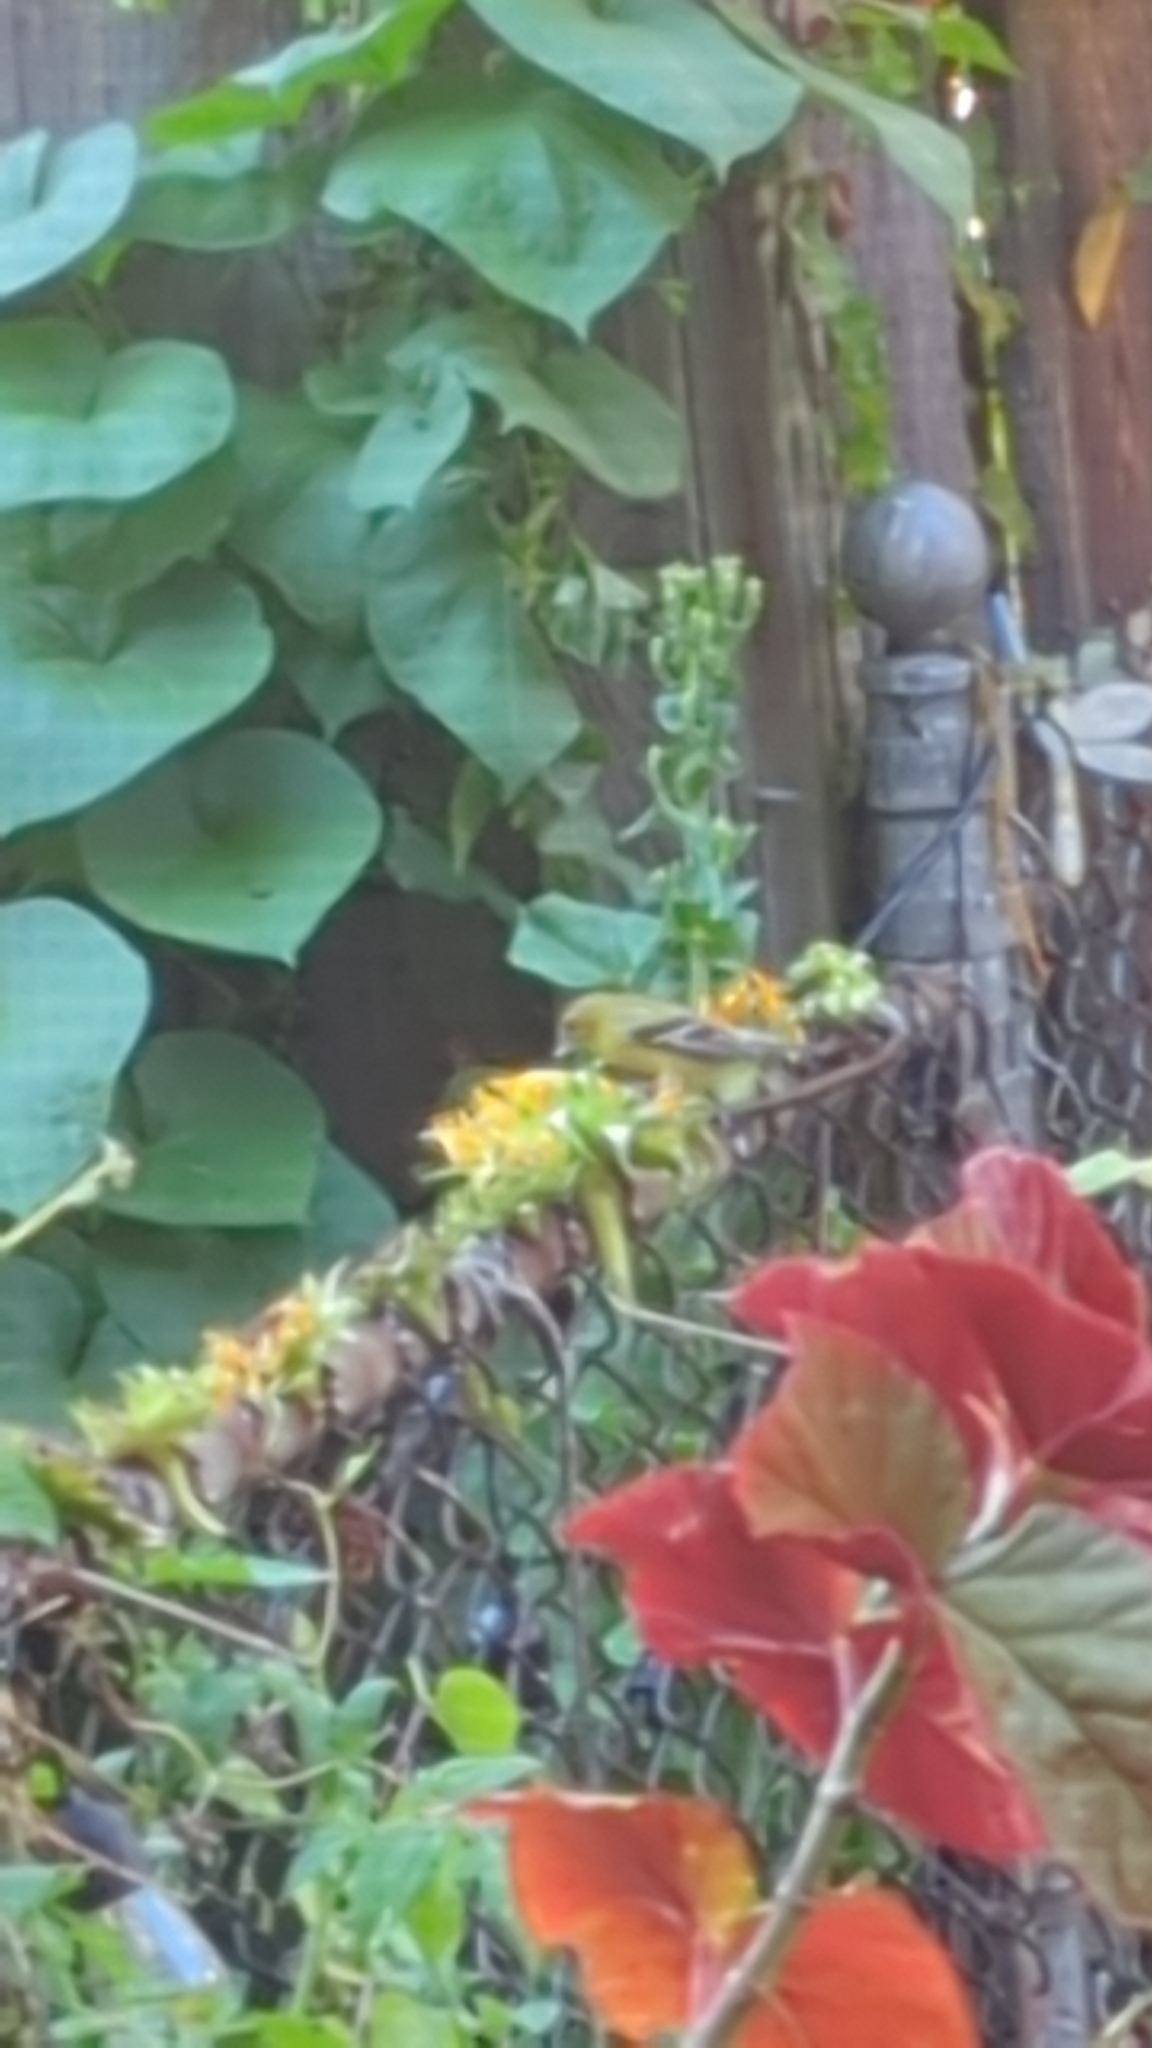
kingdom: Animalia
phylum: Chordata
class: Aves
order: Passeriformes
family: Fringillidae
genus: Spinus
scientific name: Spinus tristis
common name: American goldfinch
